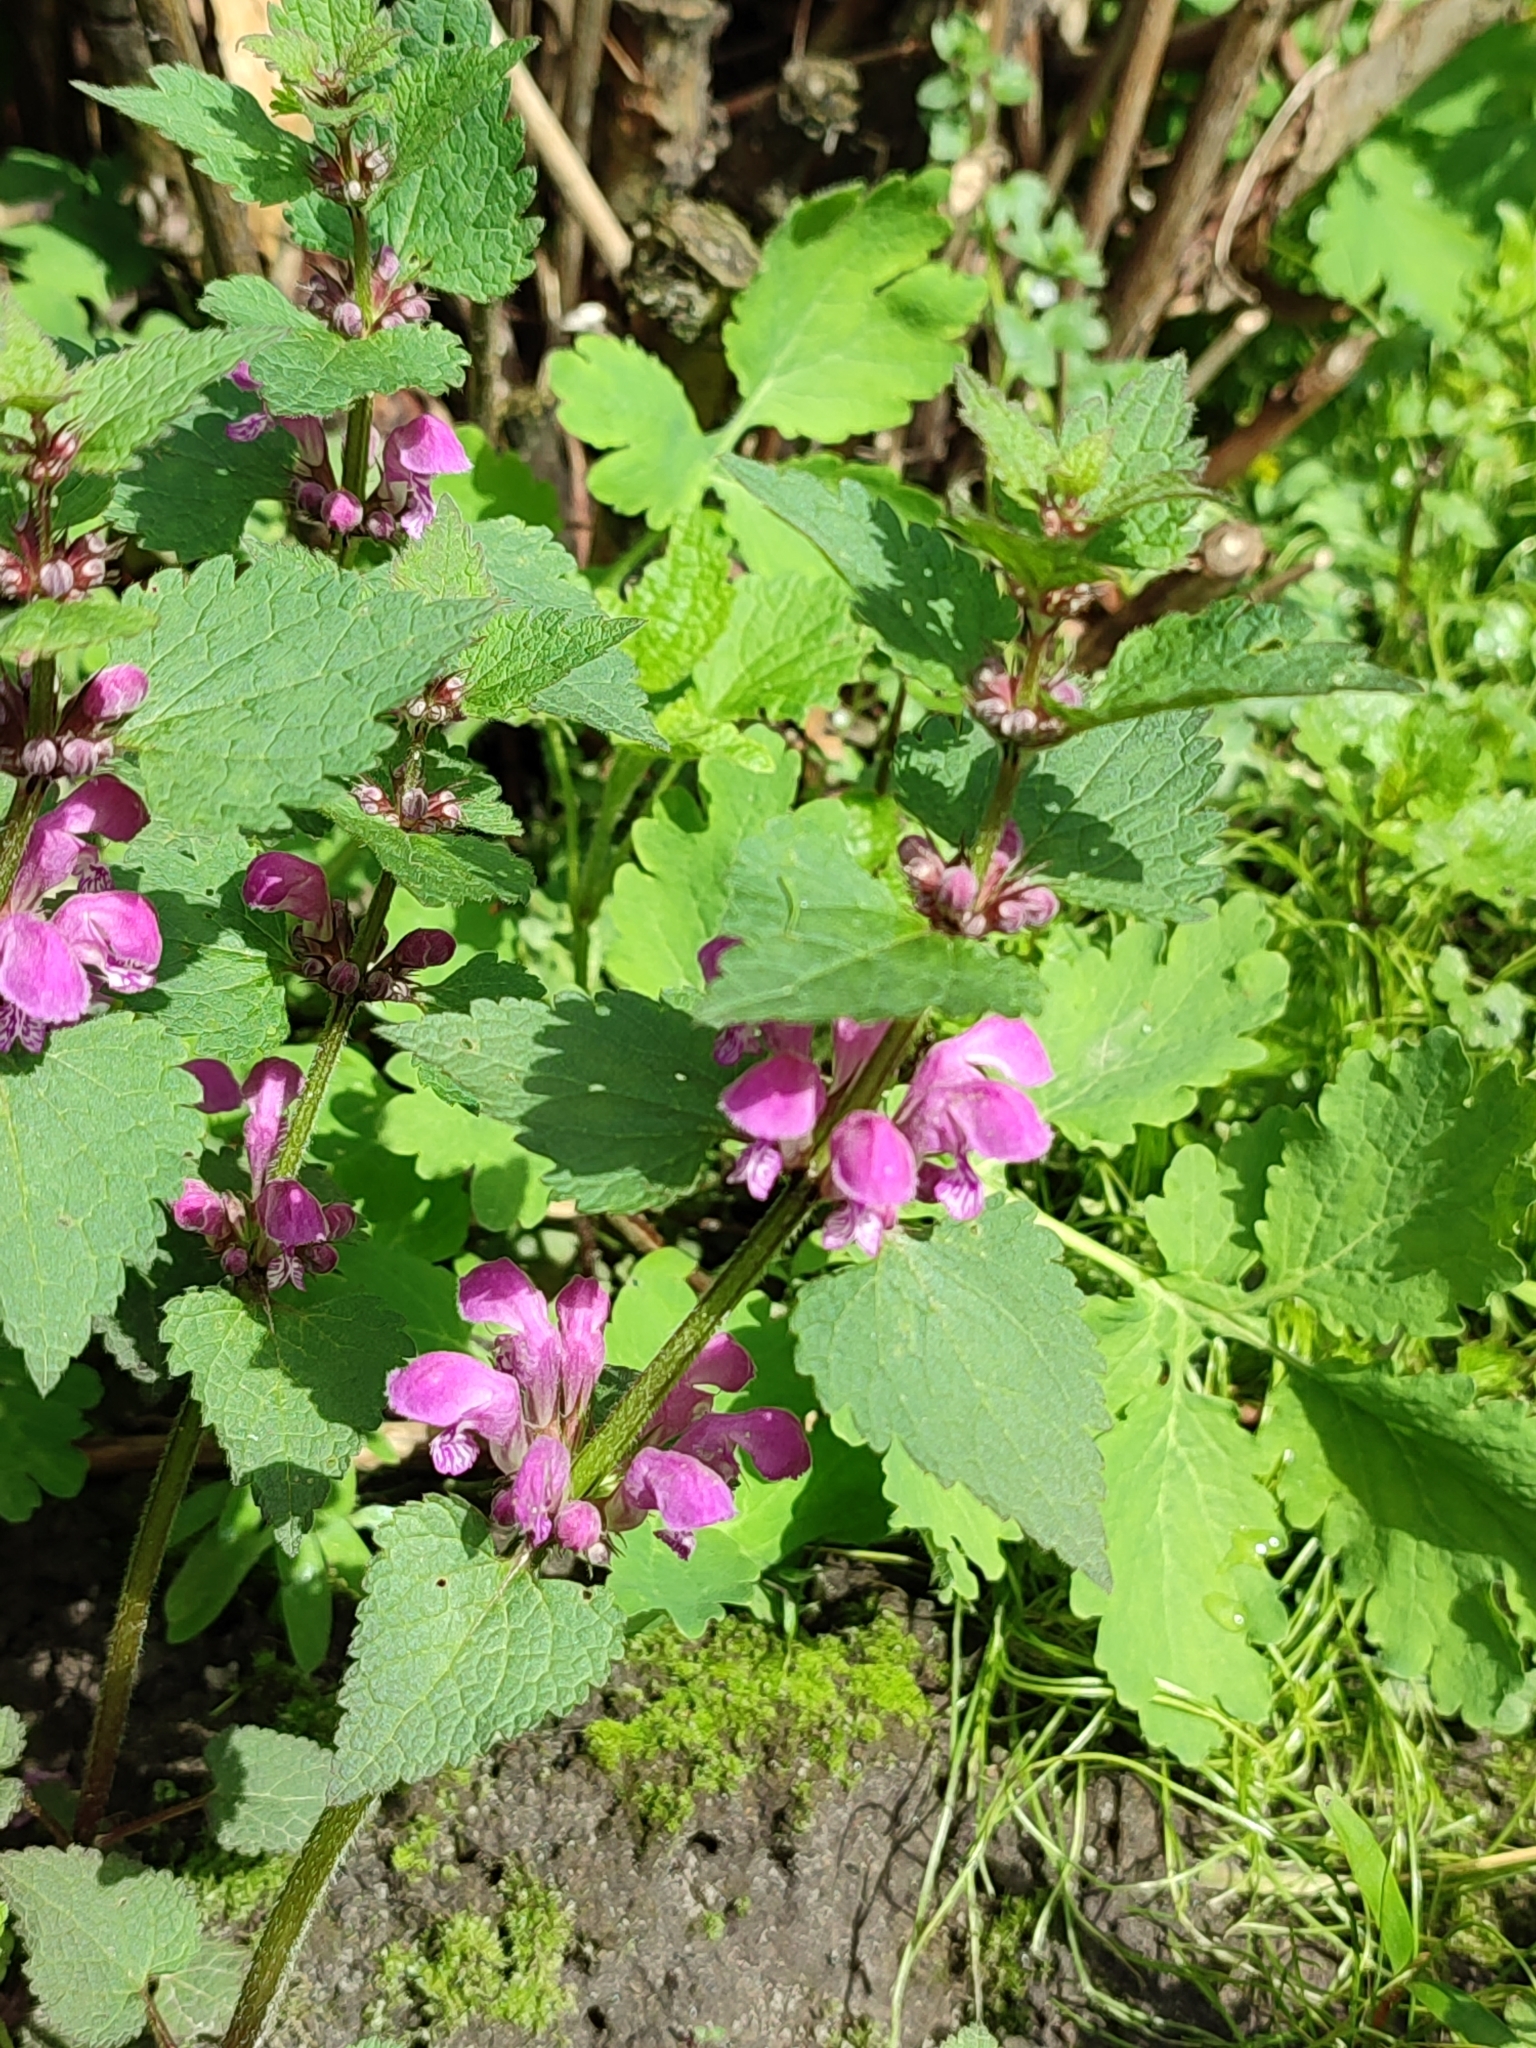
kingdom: Plantae
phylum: Tracheophyta
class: Magnoliopsida
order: Lamiales
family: Lamiaceae
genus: Lamium
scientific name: Lamium maculatum
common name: Spotted dead-nettle
